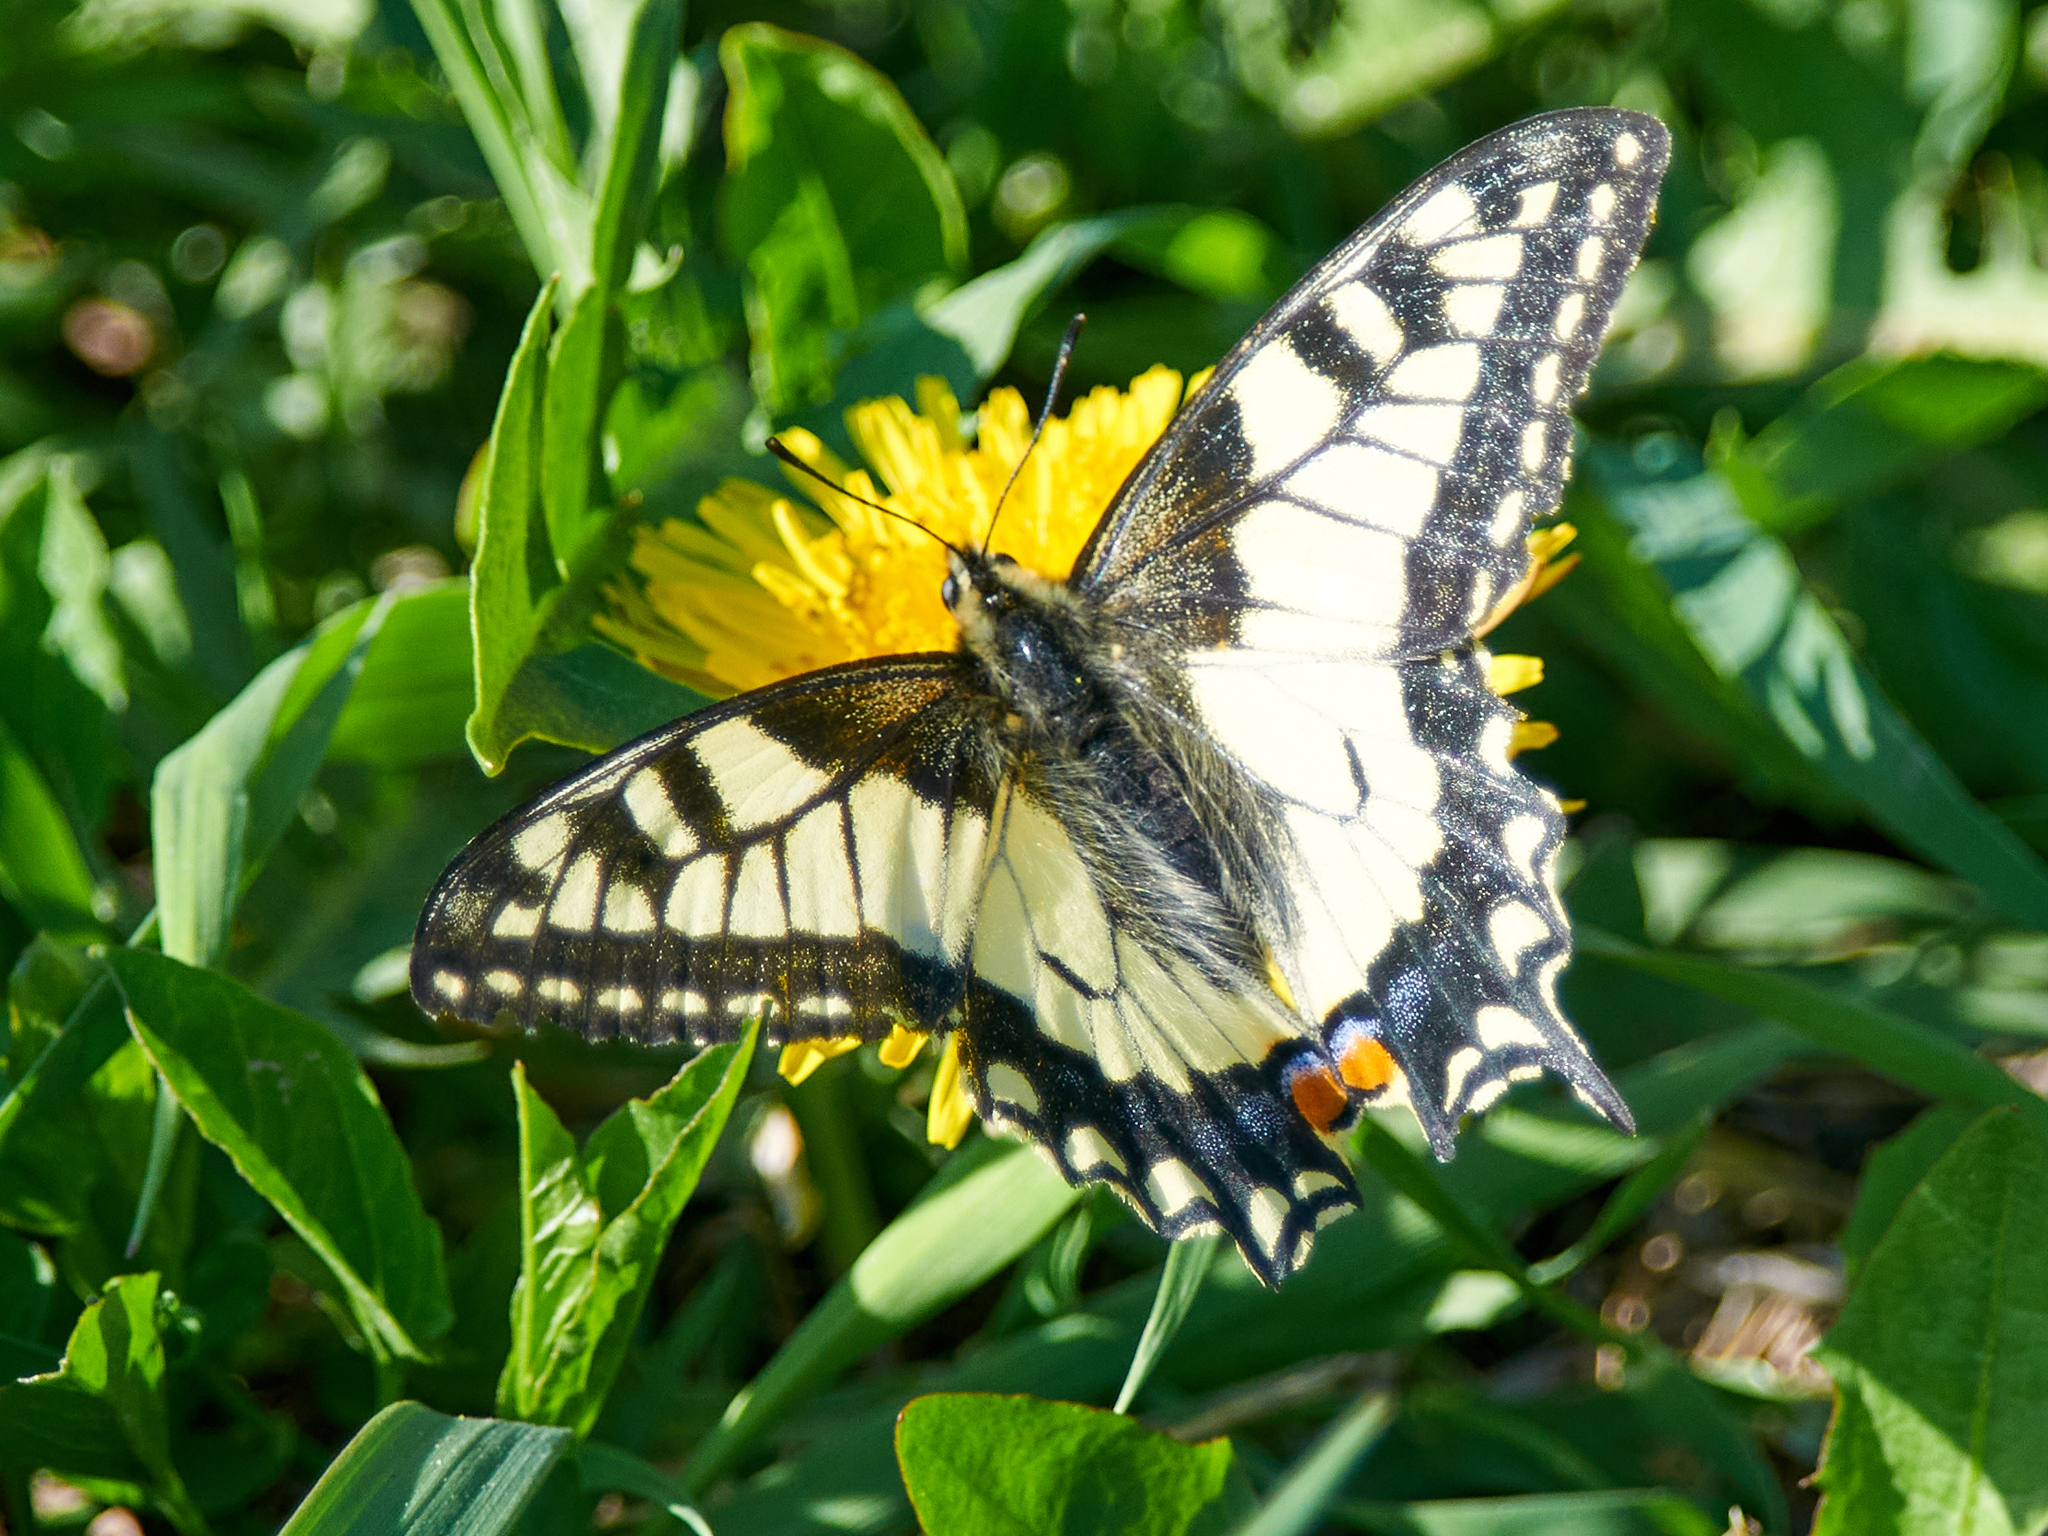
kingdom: Animalia
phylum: Arthropoda
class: Insecta
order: Lepidoptera
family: Papilionidae
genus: Papilio
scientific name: Papilio machaon
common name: Swallowtail
